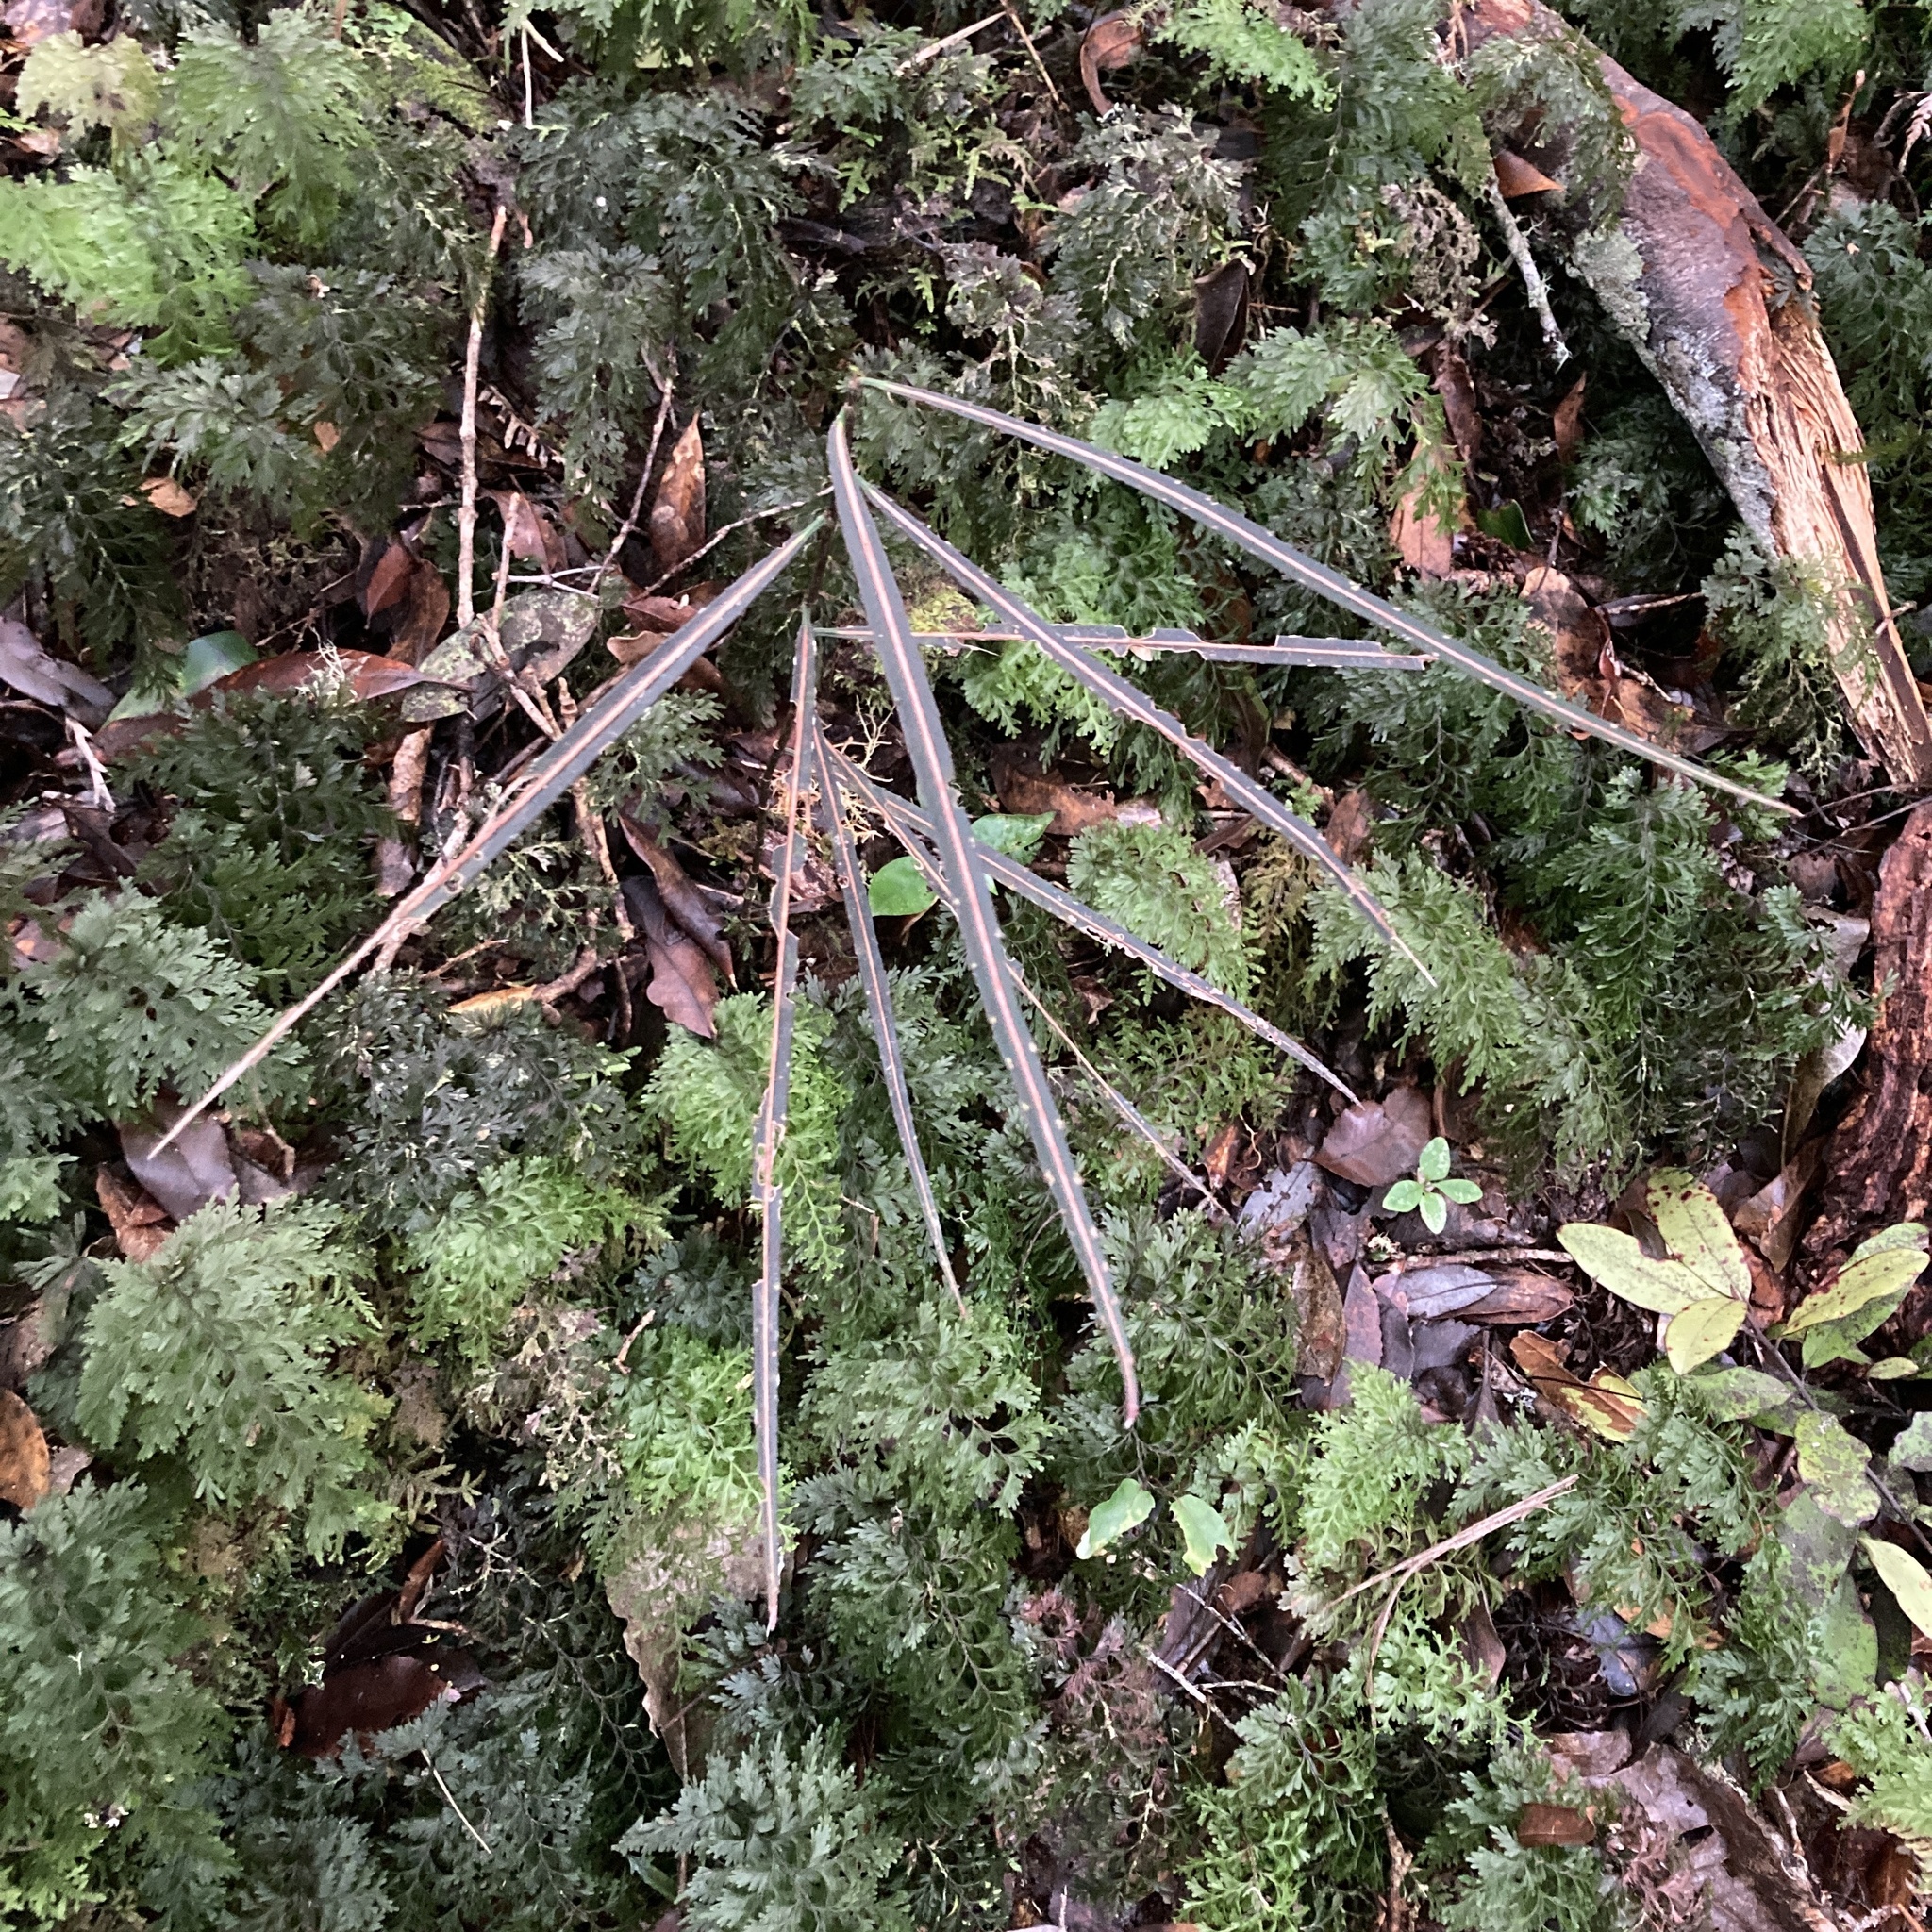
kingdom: Plantae
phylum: Tracheophyta
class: Magnoliopsida
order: Apiales
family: Araliaceae
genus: Pseudopanax
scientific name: Pseudopanax crassifolius
